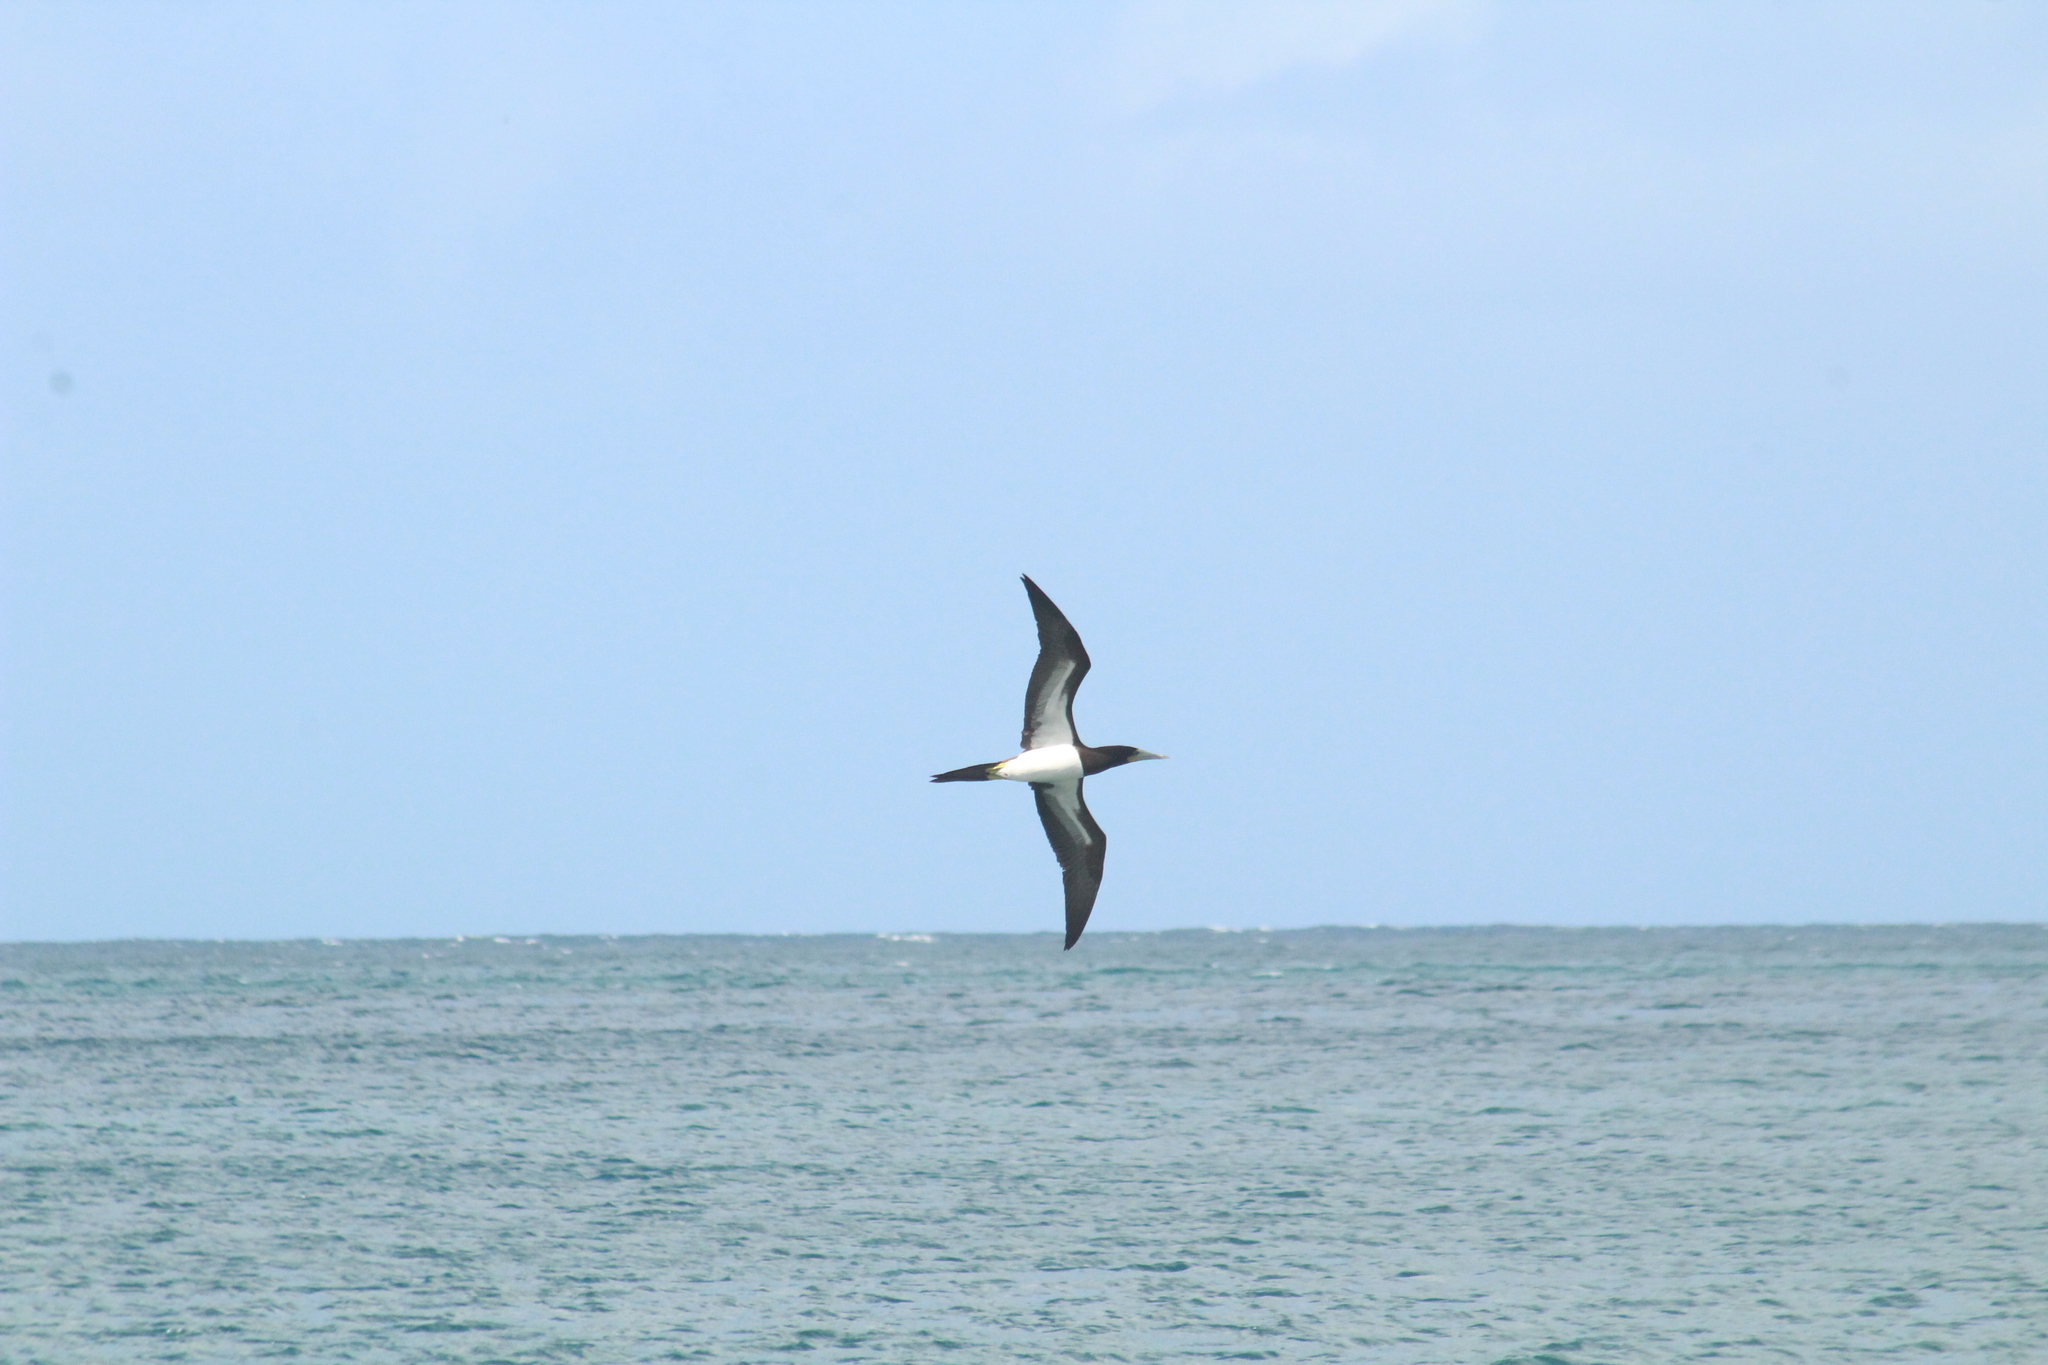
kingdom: Animalia
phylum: Chordata
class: Aves
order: Suliformes
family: Sulidae
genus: Sula
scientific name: Sula leucogaster
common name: Brown booby
